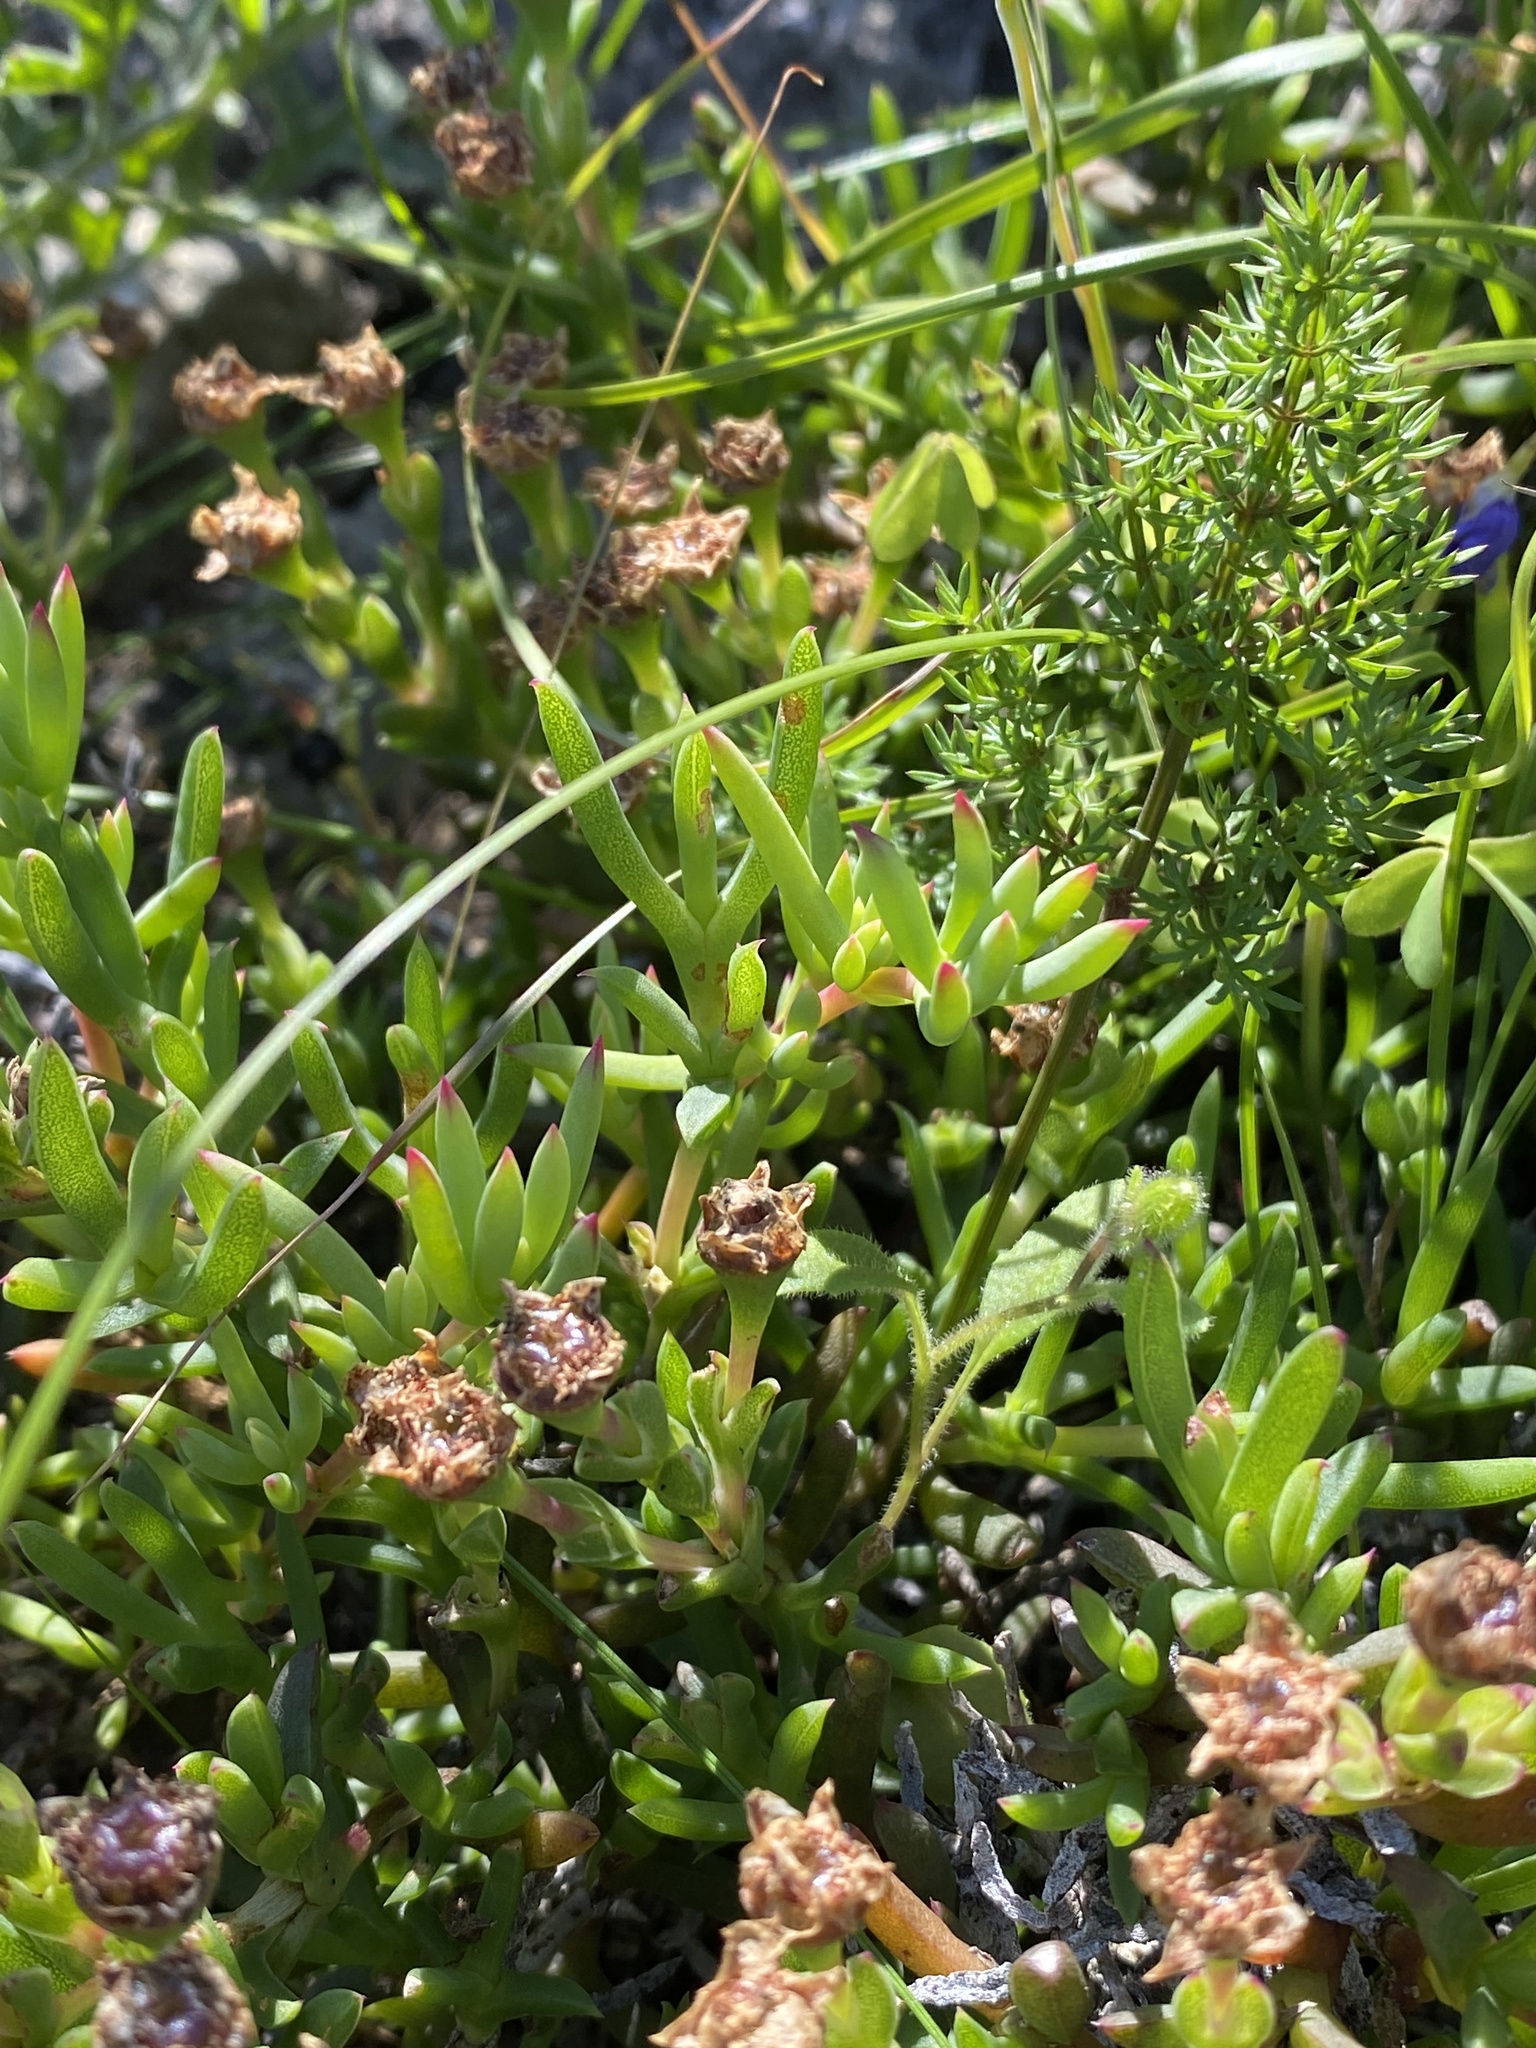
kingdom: Plantae
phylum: Tracheophyta
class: Magnoliopsida
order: Caryophyllales
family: Aizoaceae
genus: Lampranthus
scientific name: Lampranthus stipulaceus
